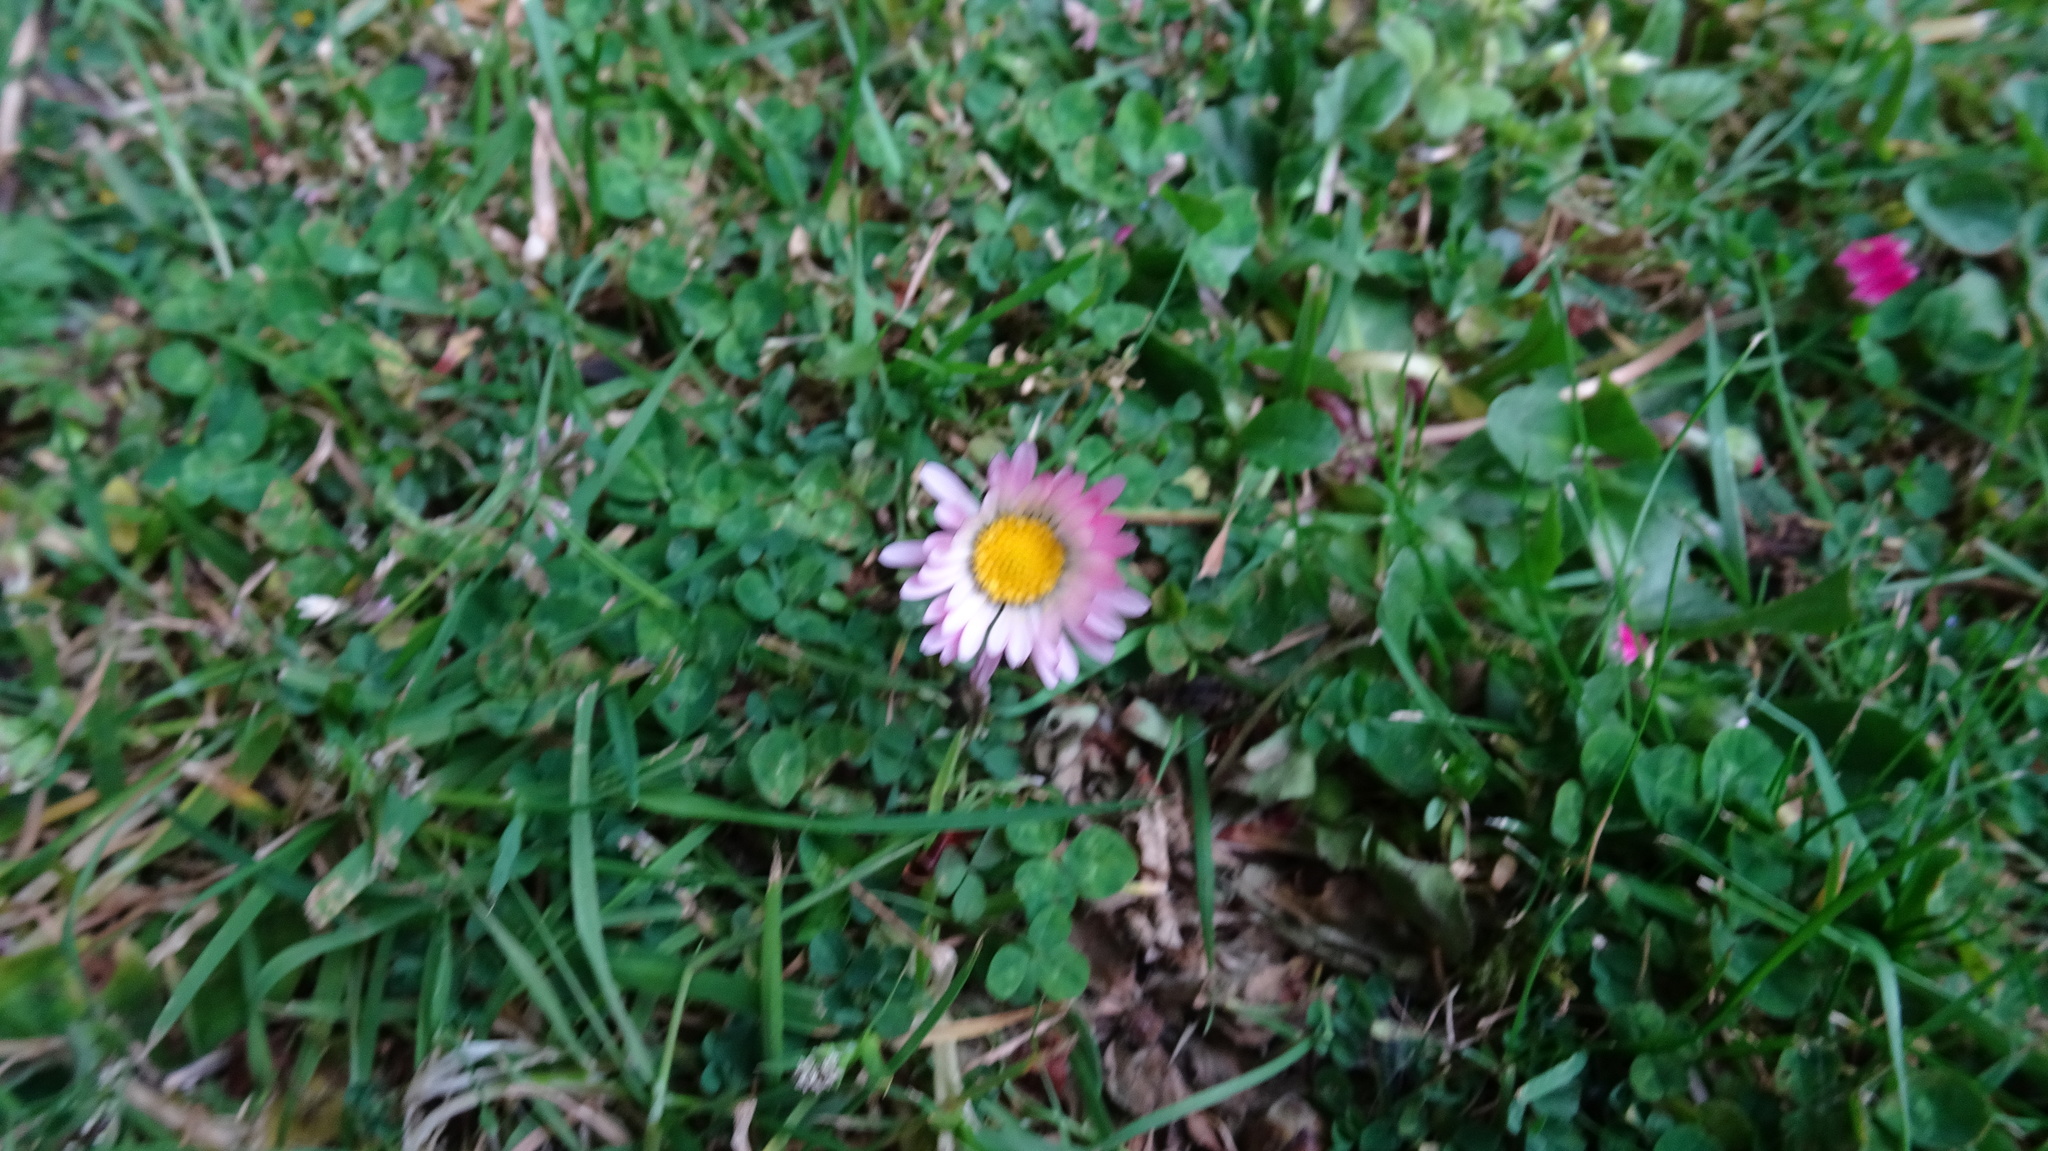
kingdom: Plantae
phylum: Tracheophyta
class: Magnoliopsida
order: Asterales
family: Asteraceae
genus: Bellis
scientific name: Bellis perennis
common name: Lawndaisy
